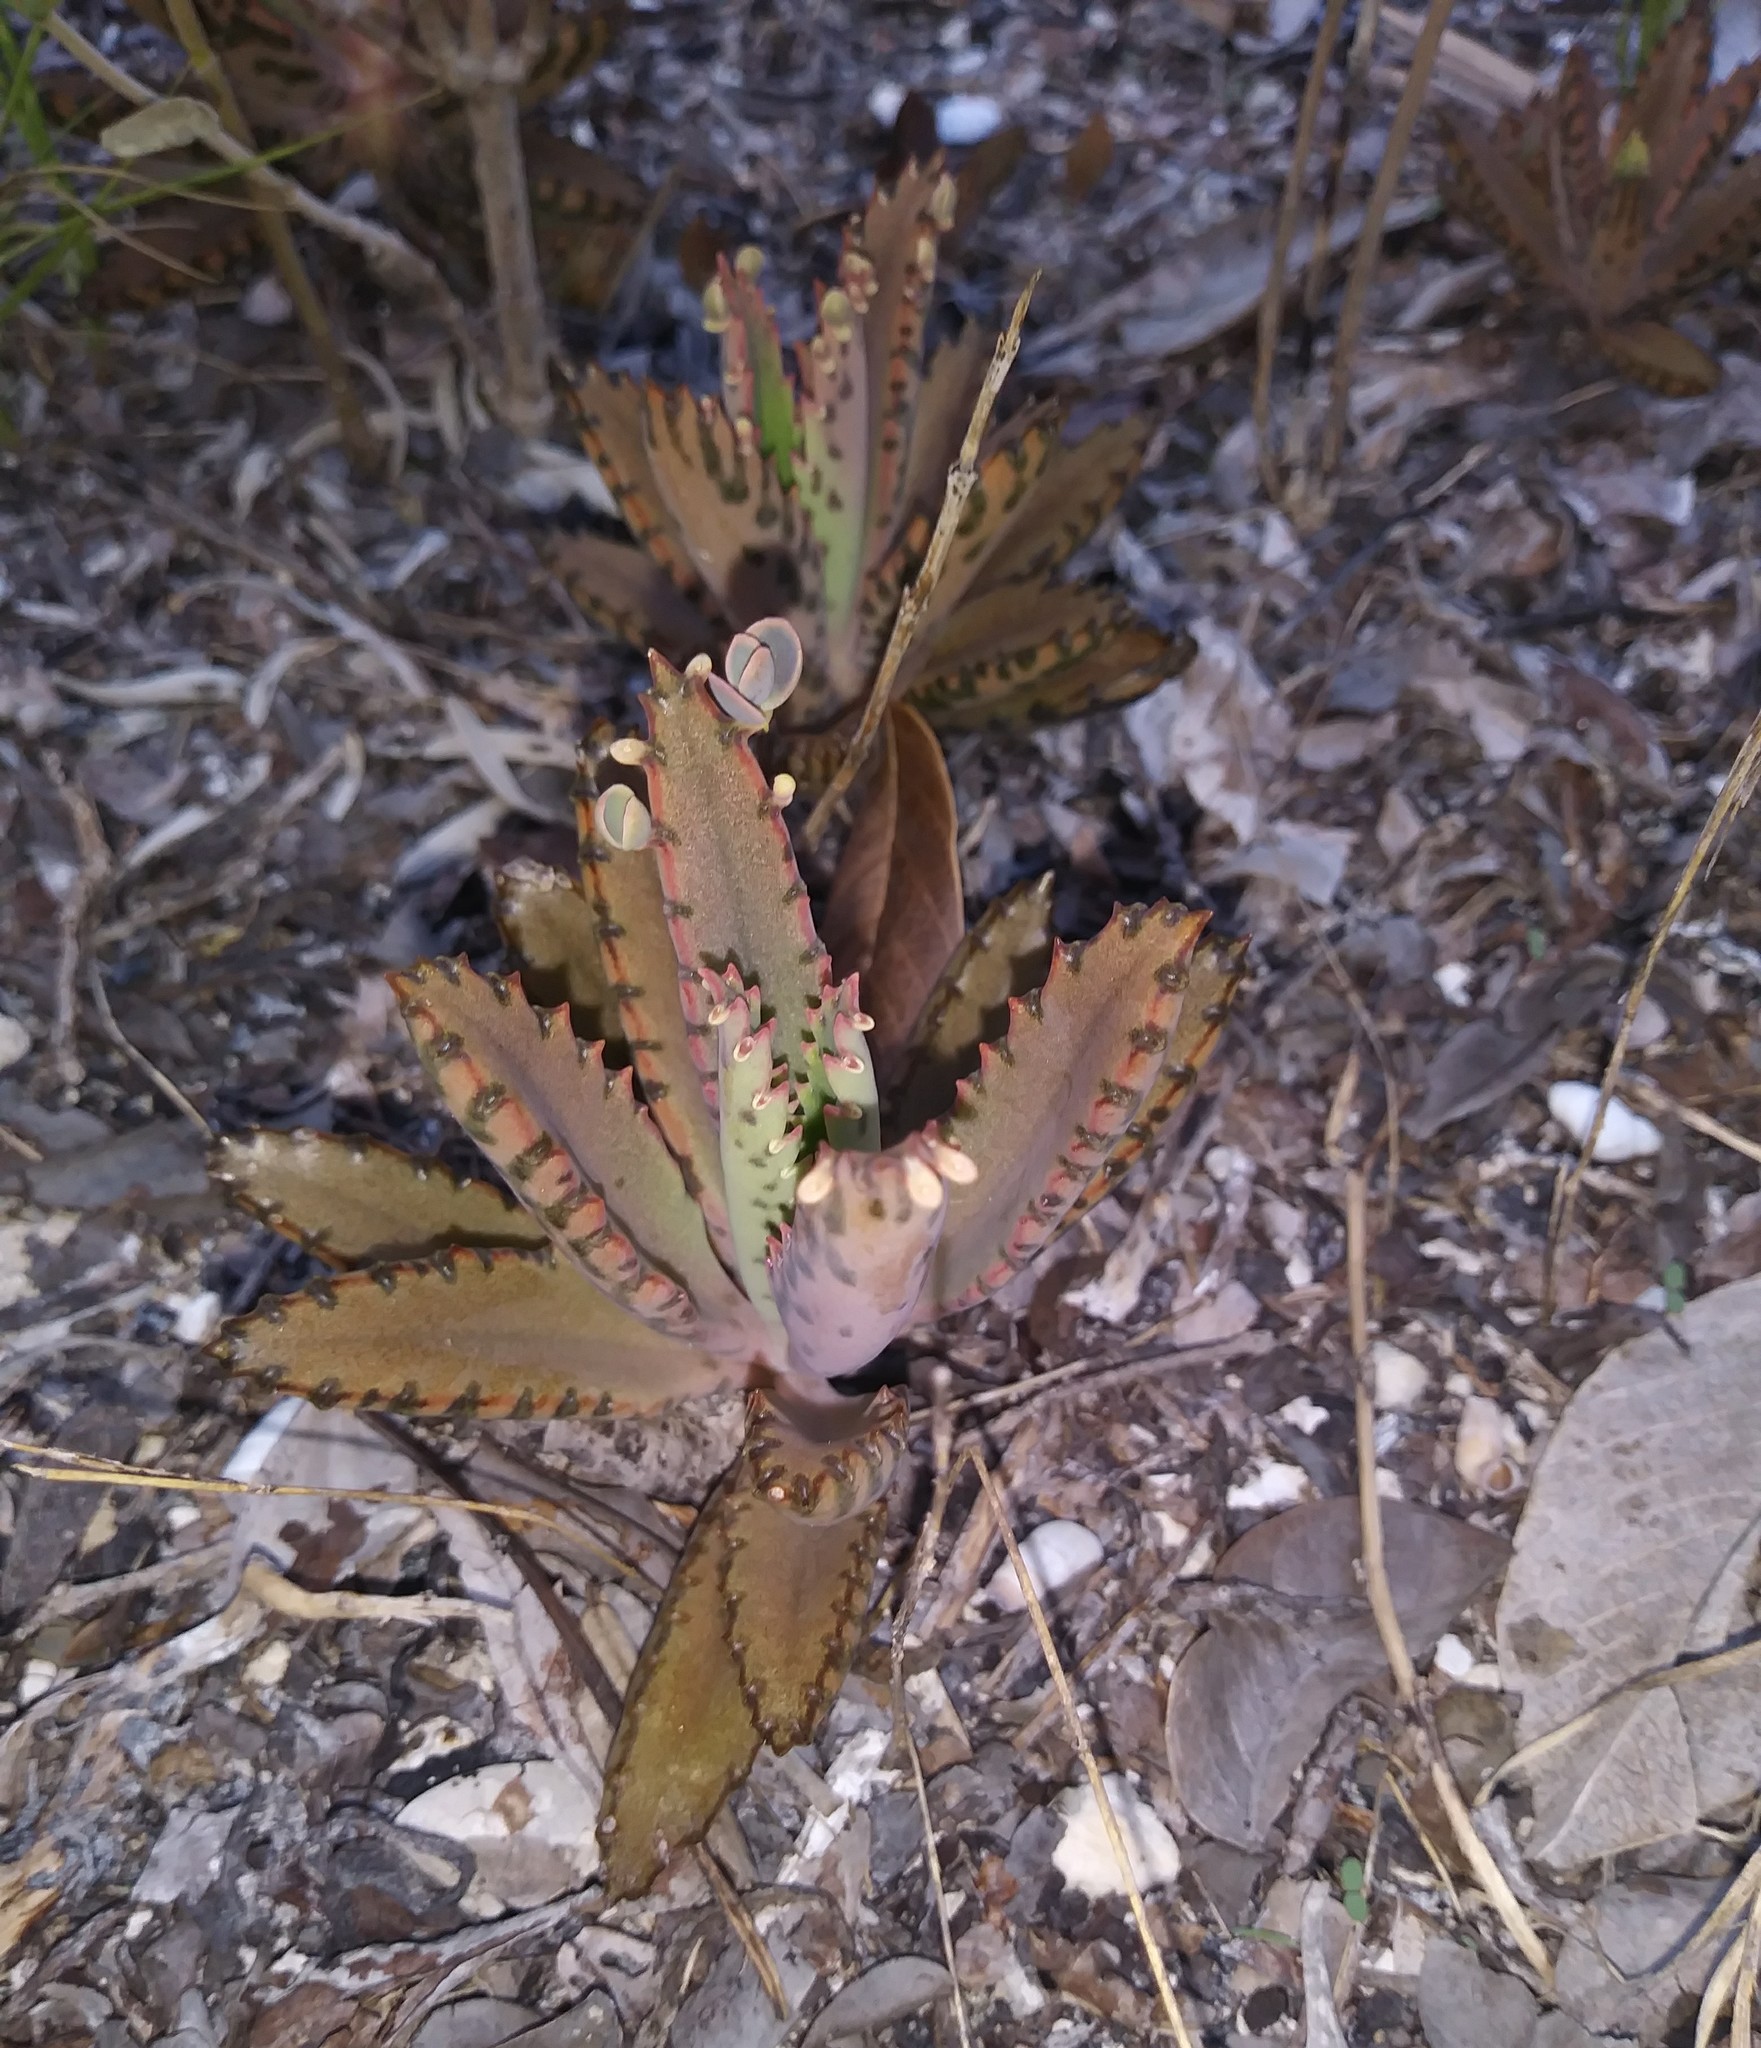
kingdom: Plantae
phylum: Tracheophyta
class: Magnoliopsida
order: Saxifragales
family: Crassulaceae
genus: Kalanchoe
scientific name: Kalanchoe houghtonii
